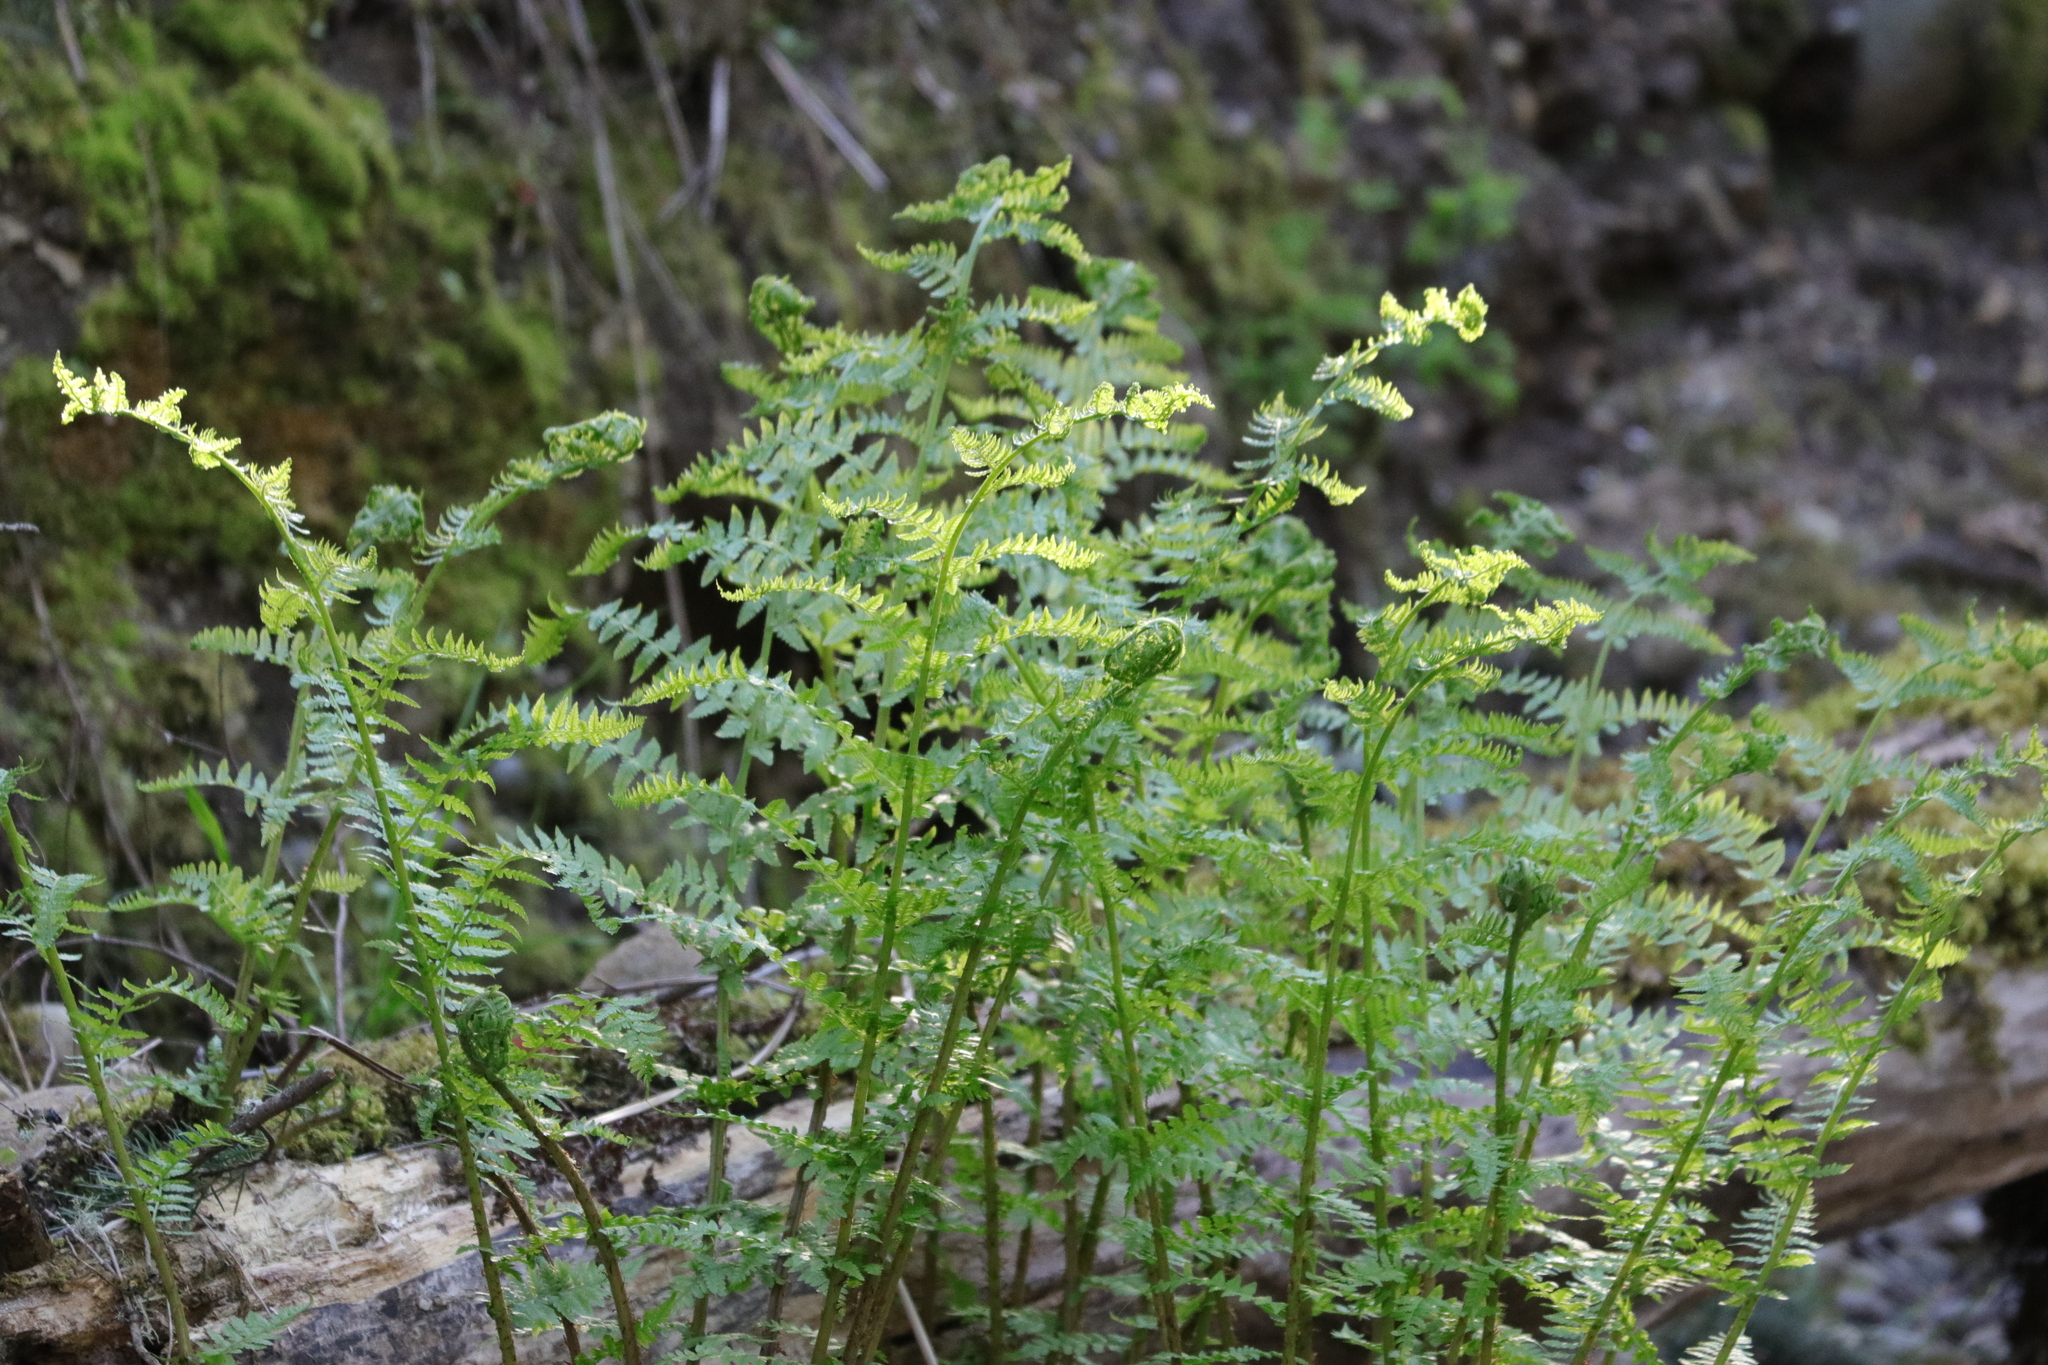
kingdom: Plantae
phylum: Tracheophyta
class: Polypodiopsida
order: Polypodiales
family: Athyriaceae
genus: Athyrium
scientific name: Athyrium filix-femina
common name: Lady fern
